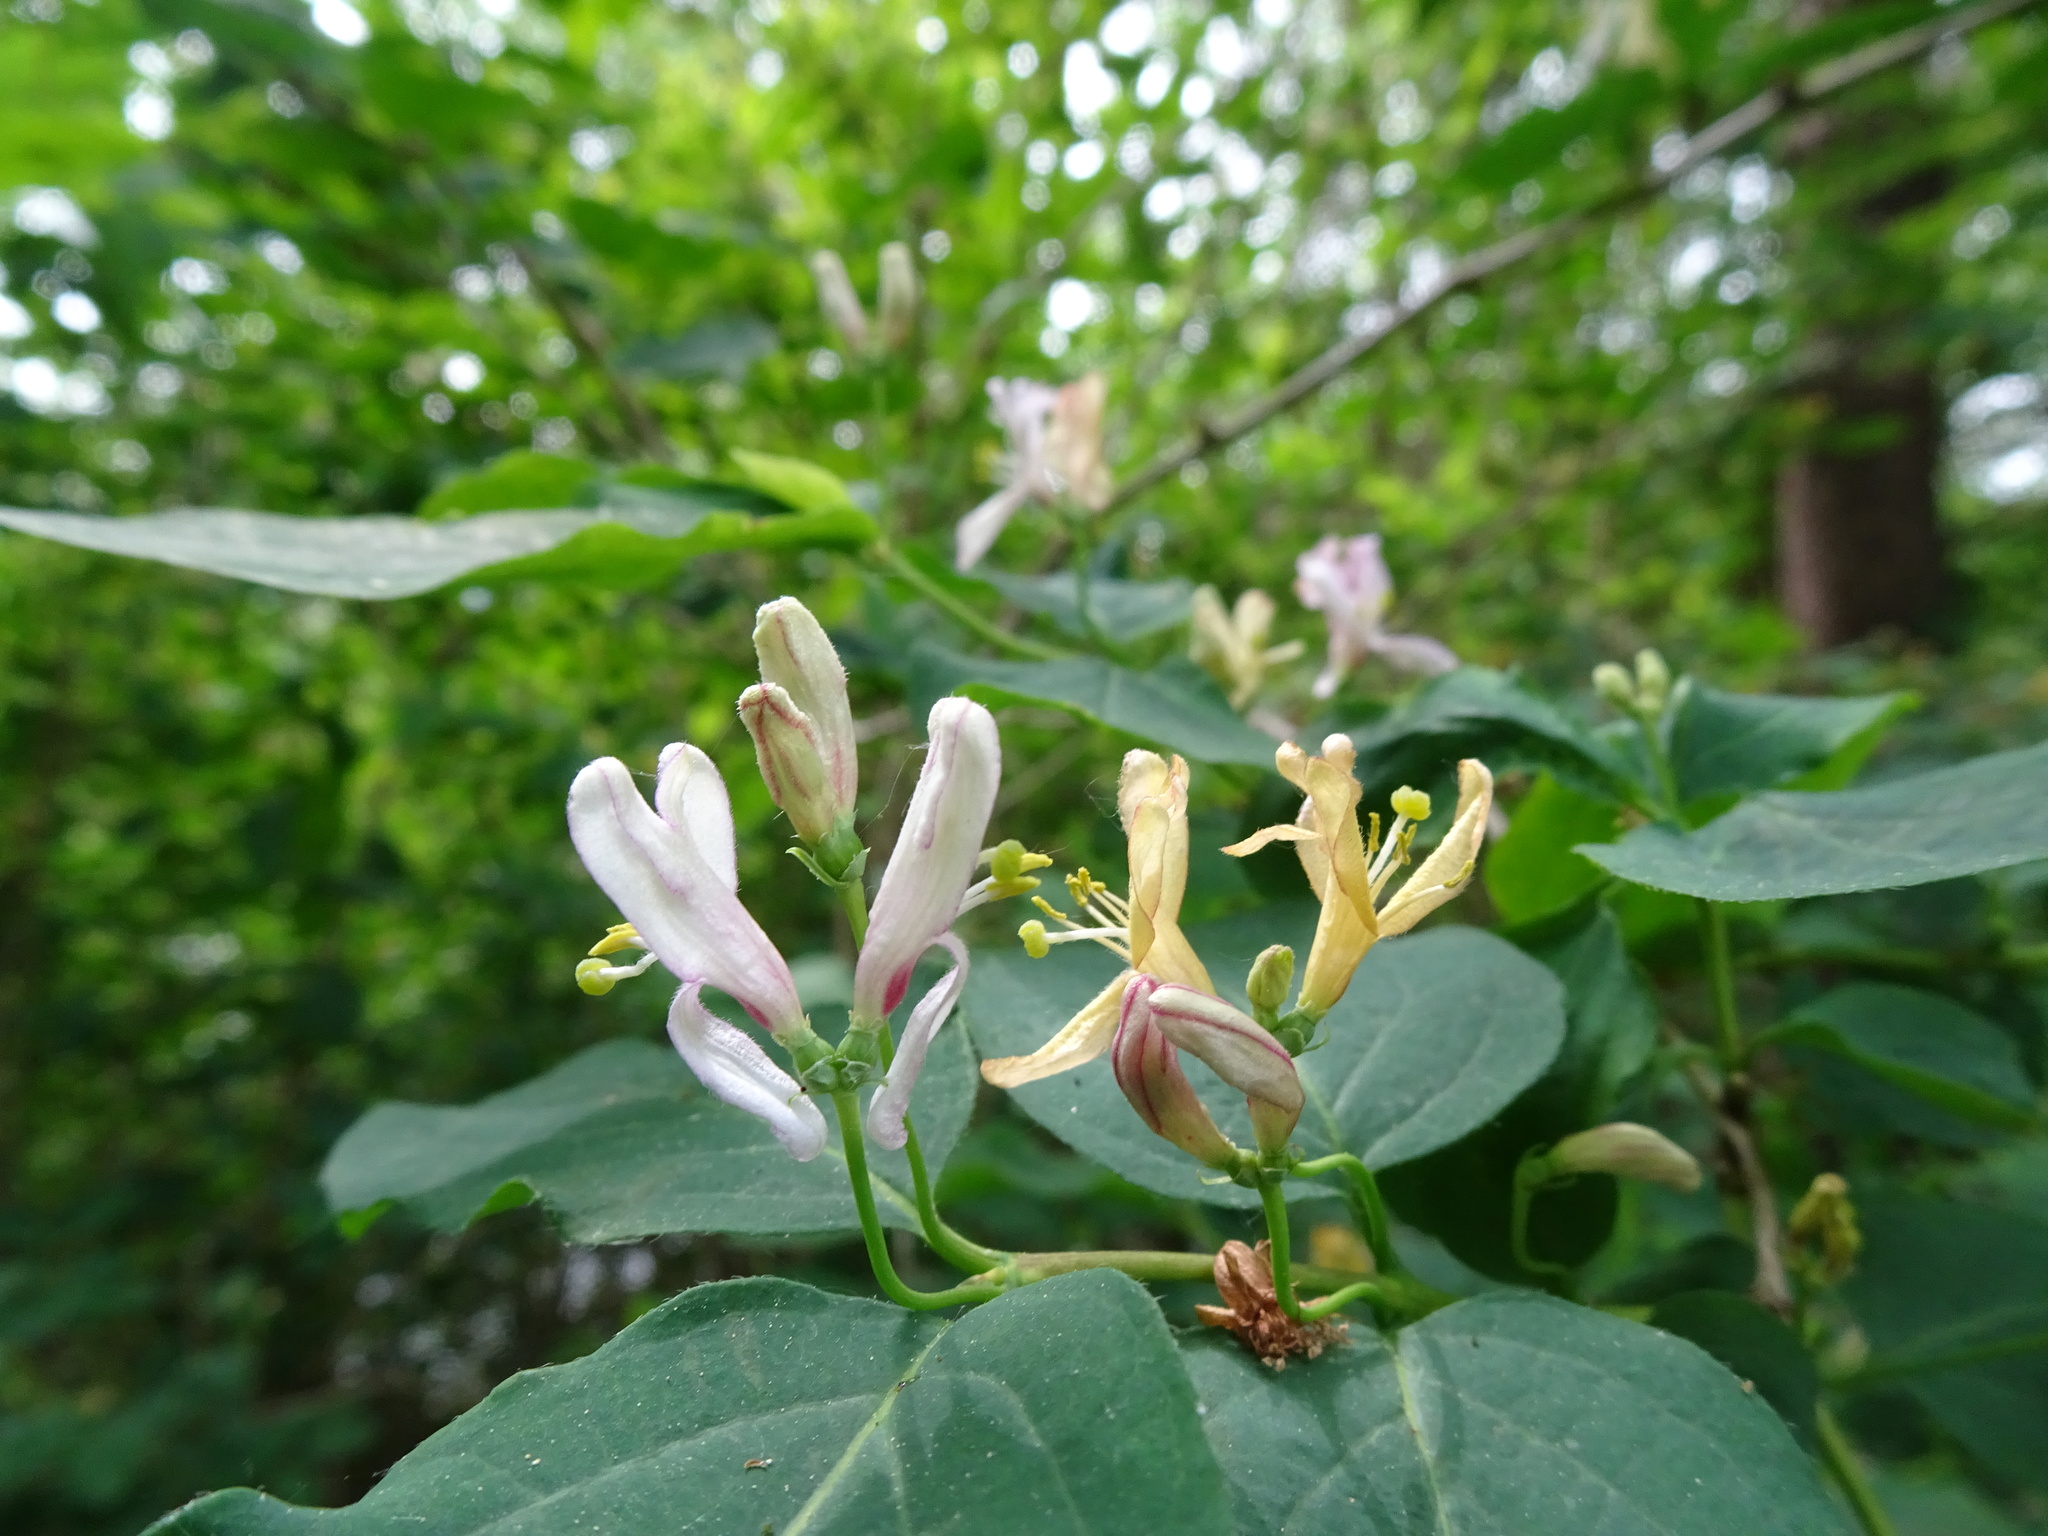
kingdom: Plantae
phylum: Tracheophyta
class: Magnoliopsida
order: Dipsacales
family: Caprifoliaceae
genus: Lonicera
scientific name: Lonicera xylosteum
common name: Fly honeysuckle
